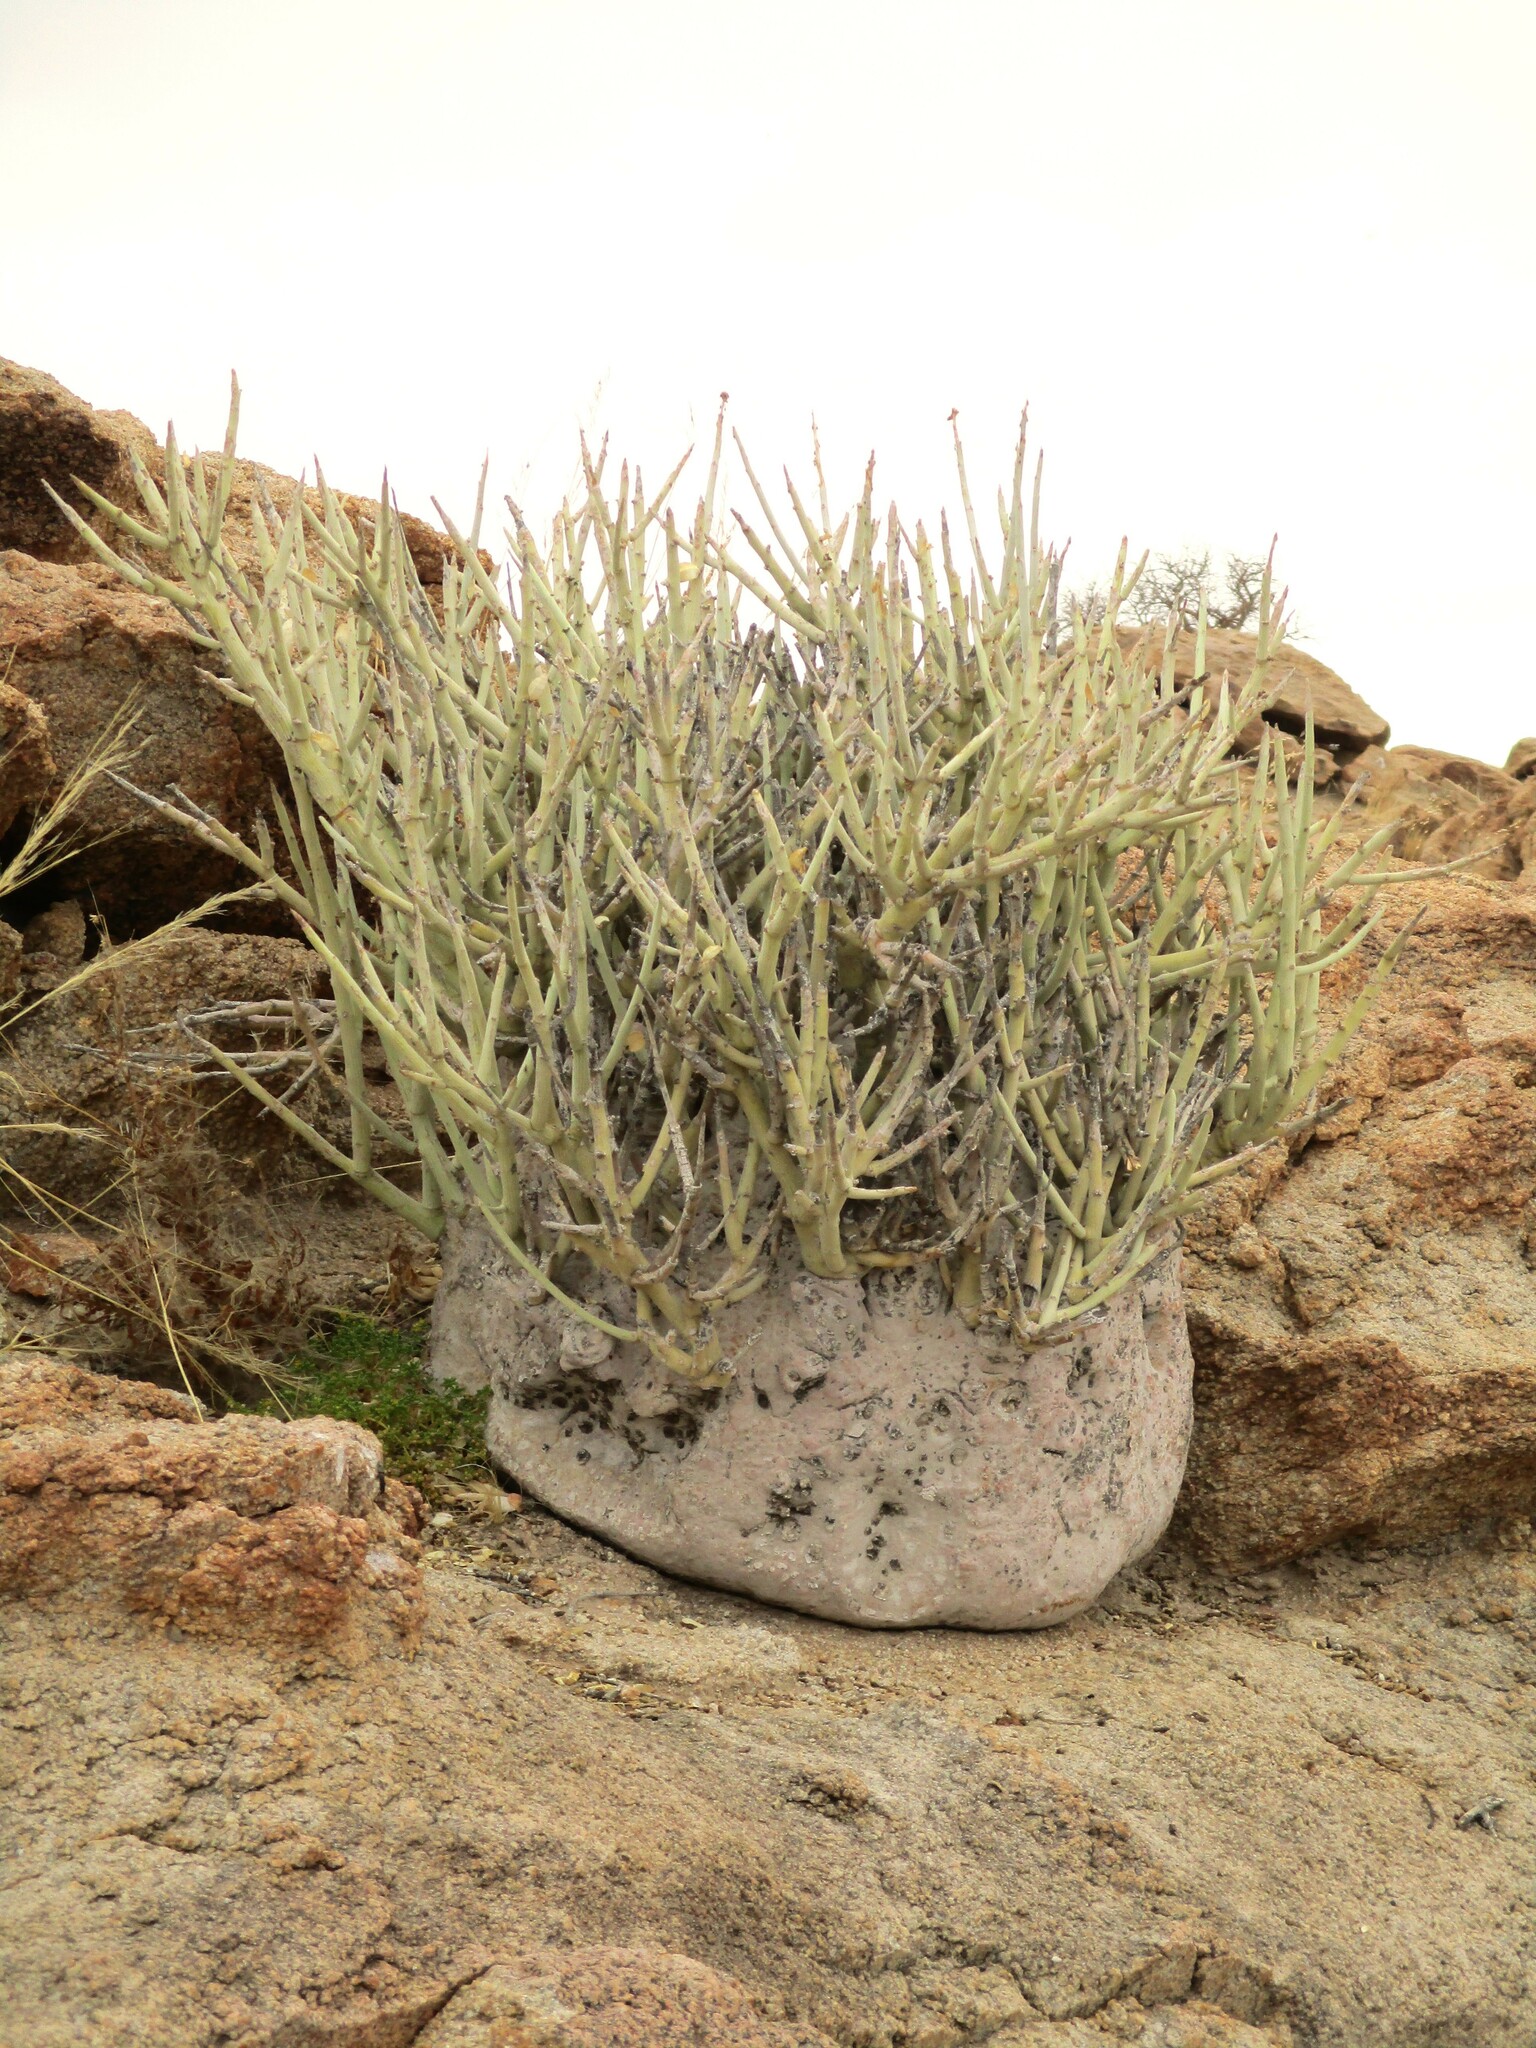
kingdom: Plantae
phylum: Tracheophyta
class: Magnoliopsida
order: Malpighiales
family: Passifloraceae
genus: Adenia
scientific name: Adenia pechuelii
